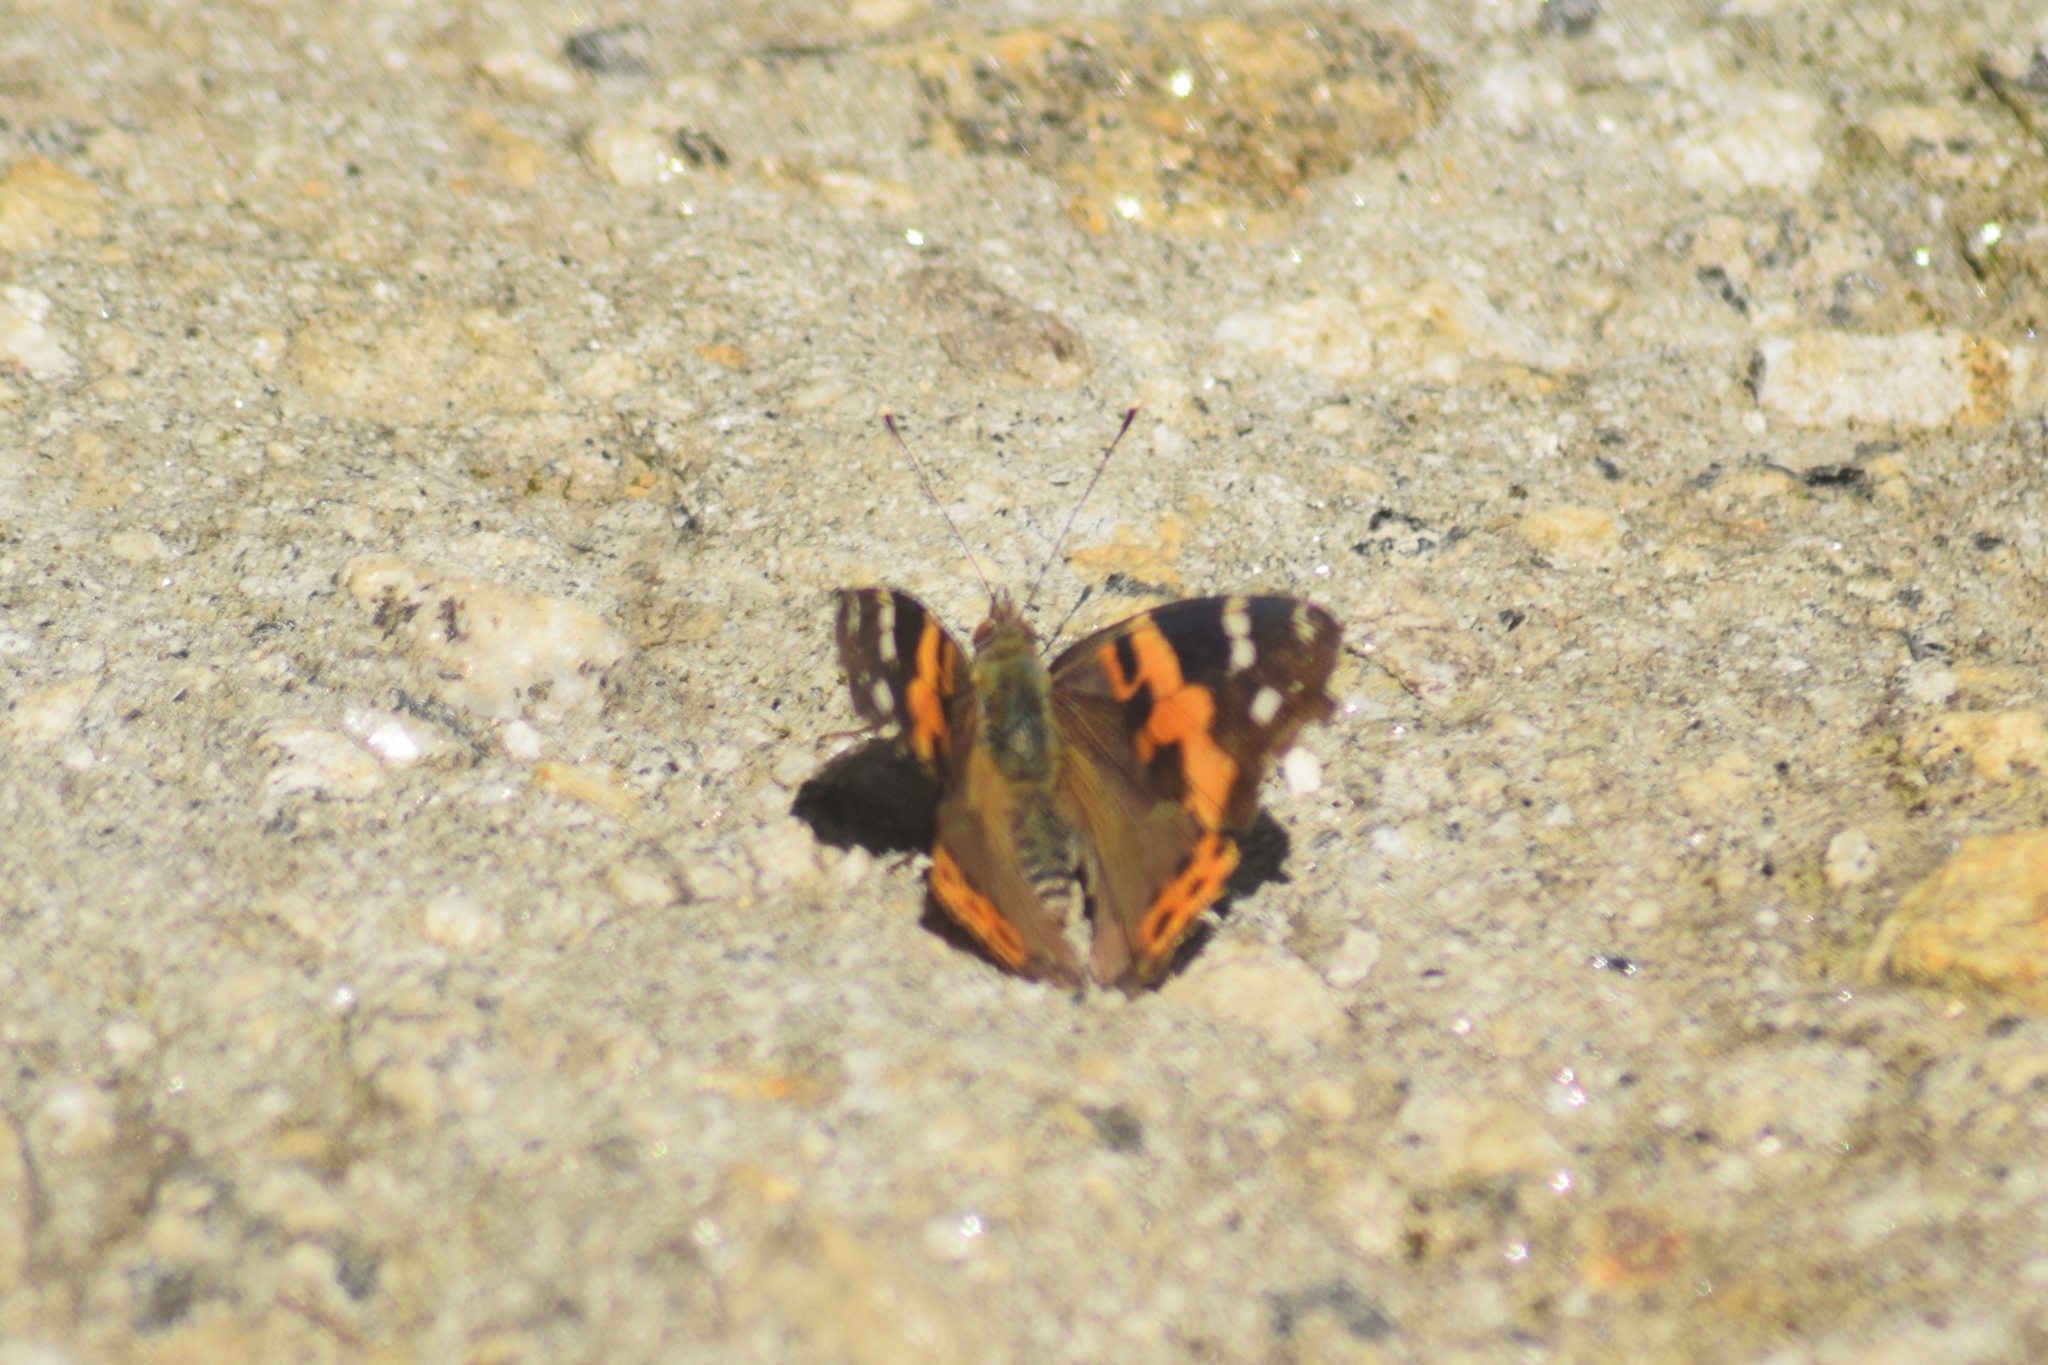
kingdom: Animalia
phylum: Arthropoda
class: Insecta
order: Lepidoptera
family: Nymphalidae
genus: Vanessa
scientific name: Vanessa cardui
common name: Painted lady
